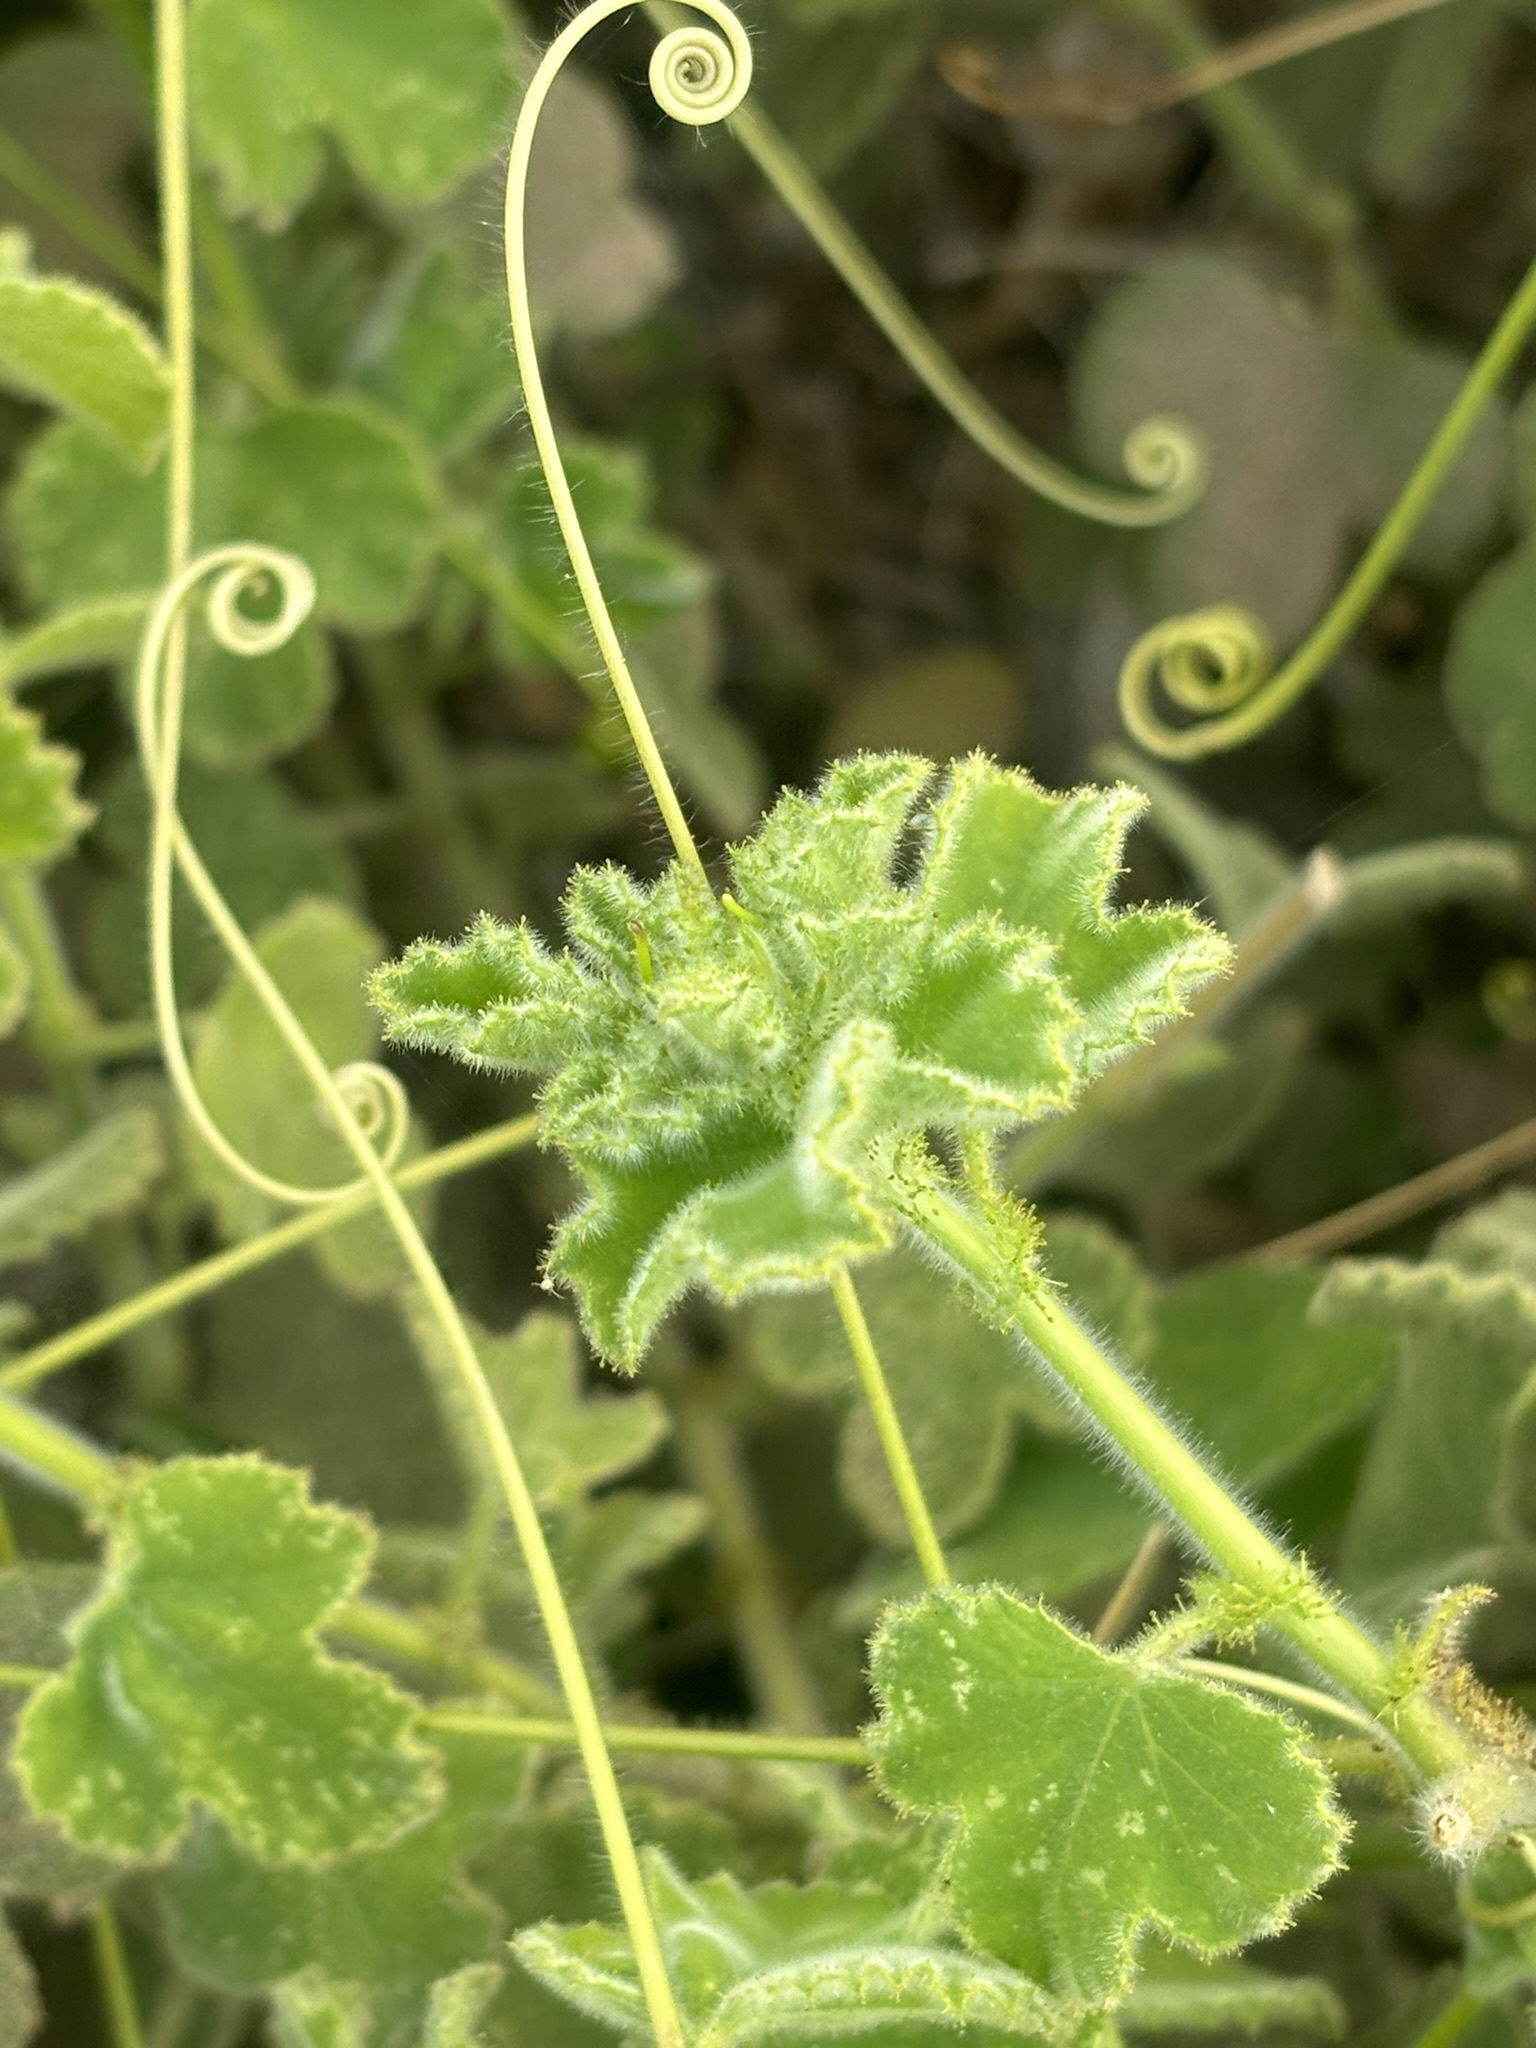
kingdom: Plantae
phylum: Tracheophyta
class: Magnoliopsida
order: Malpighiales
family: Passifloraceae
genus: Passiflora
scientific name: Passiflora fruticosa
